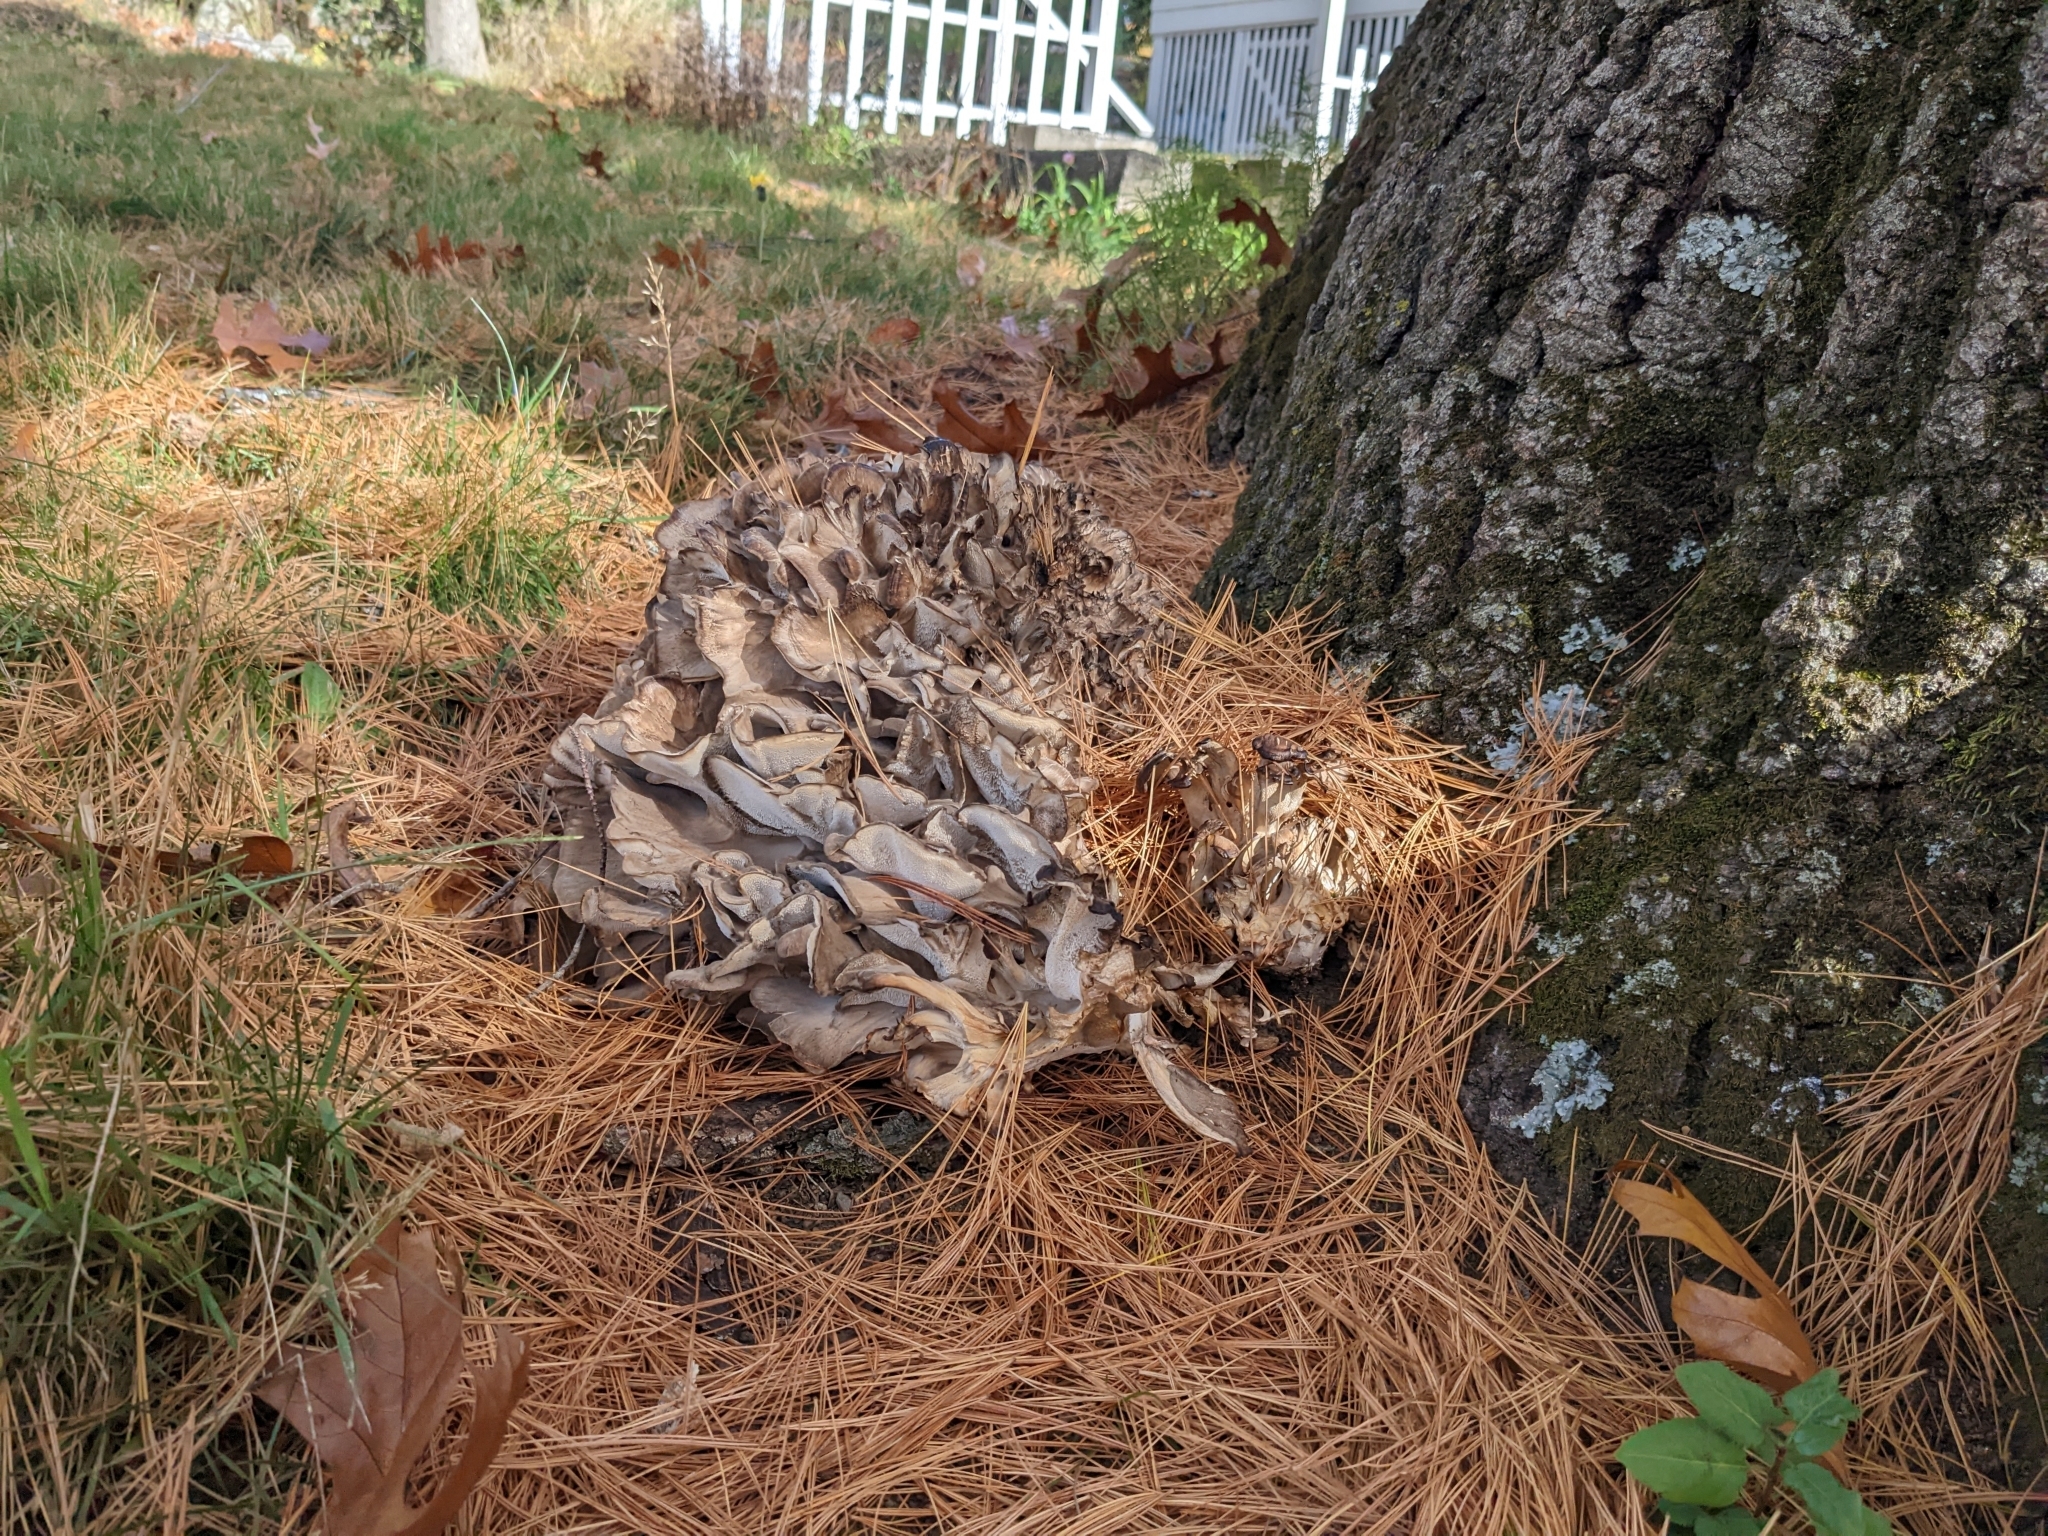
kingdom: Fungi
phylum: Basidiomycota
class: Agaricomycetes
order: Polyporales
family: Grifolaceae
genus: Grifola
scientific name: Grifola frondosa
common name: Hen of the woods
